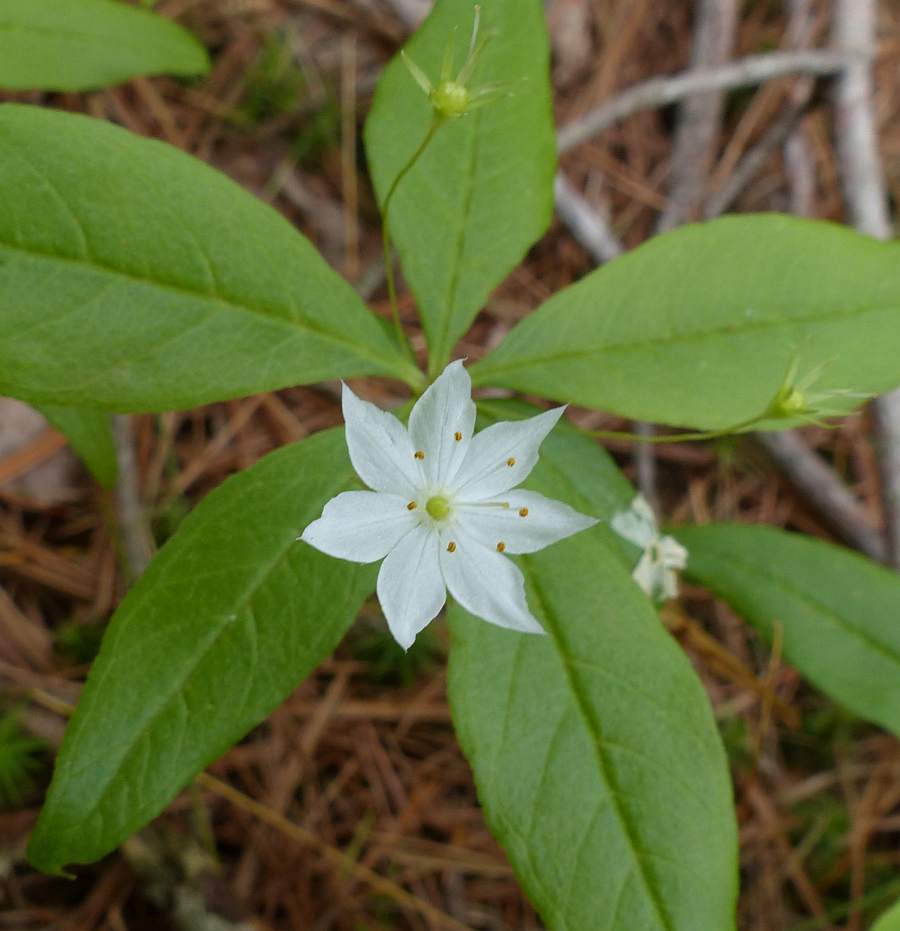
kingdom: Plantae
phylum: Tracheophyta
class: Magnoliopsida
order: Ericales
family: Primulaceae
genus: Lysimachia
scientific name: Lysimachia borealis
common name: American starflower
